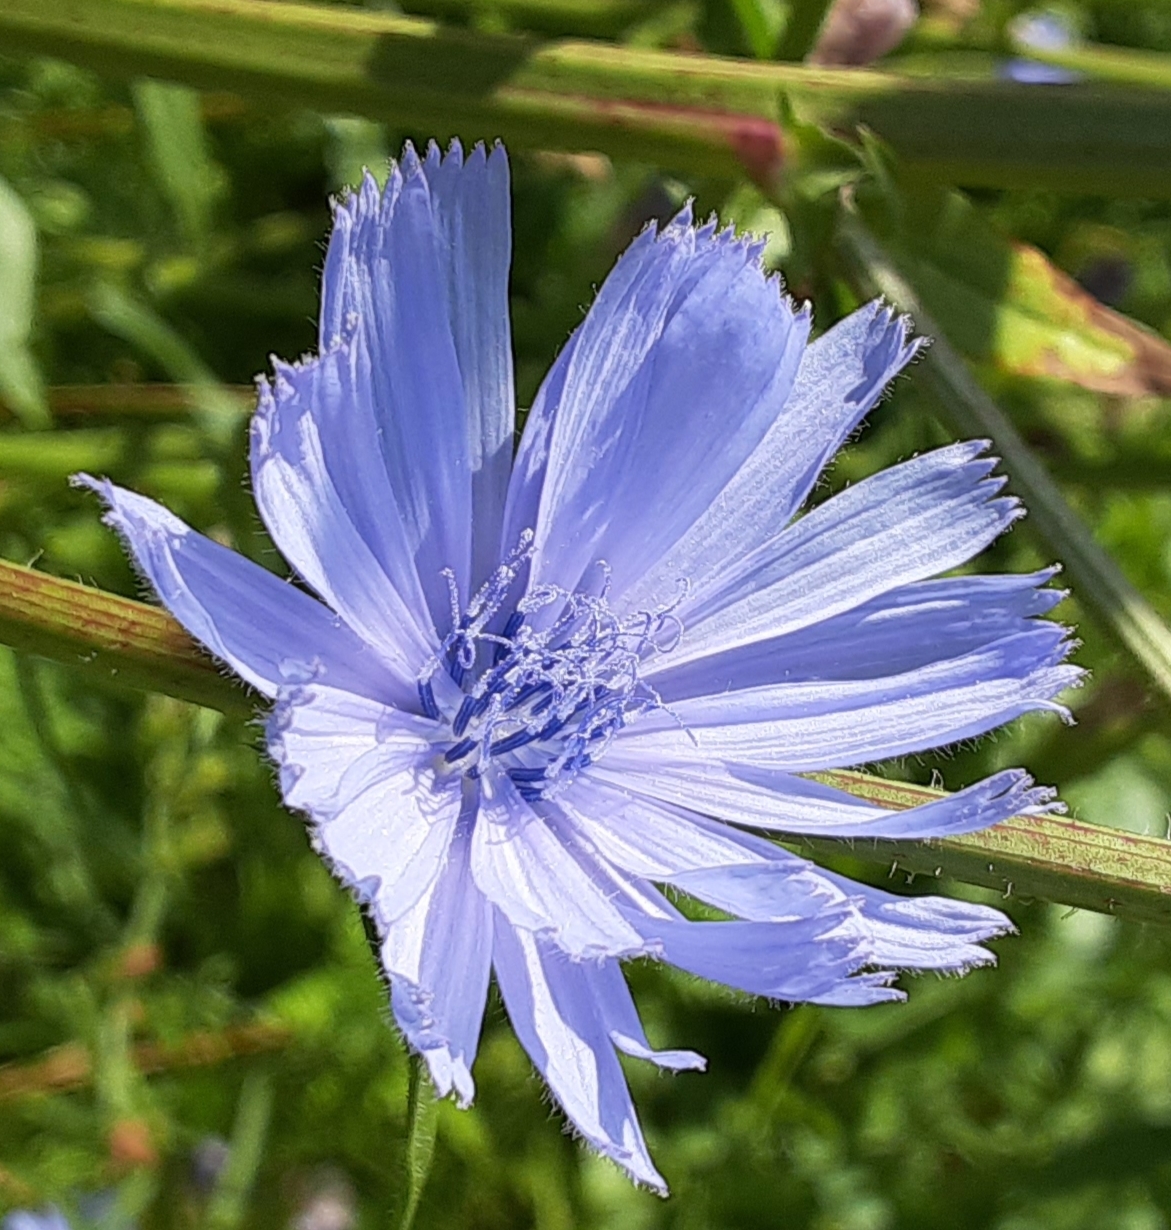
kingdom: Plantae
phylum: Tracheophyta
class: Magnoliopsida
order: Asterales
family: Asteraceae
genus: Cichorium
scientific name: Cichorium intybus
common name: Chicory
